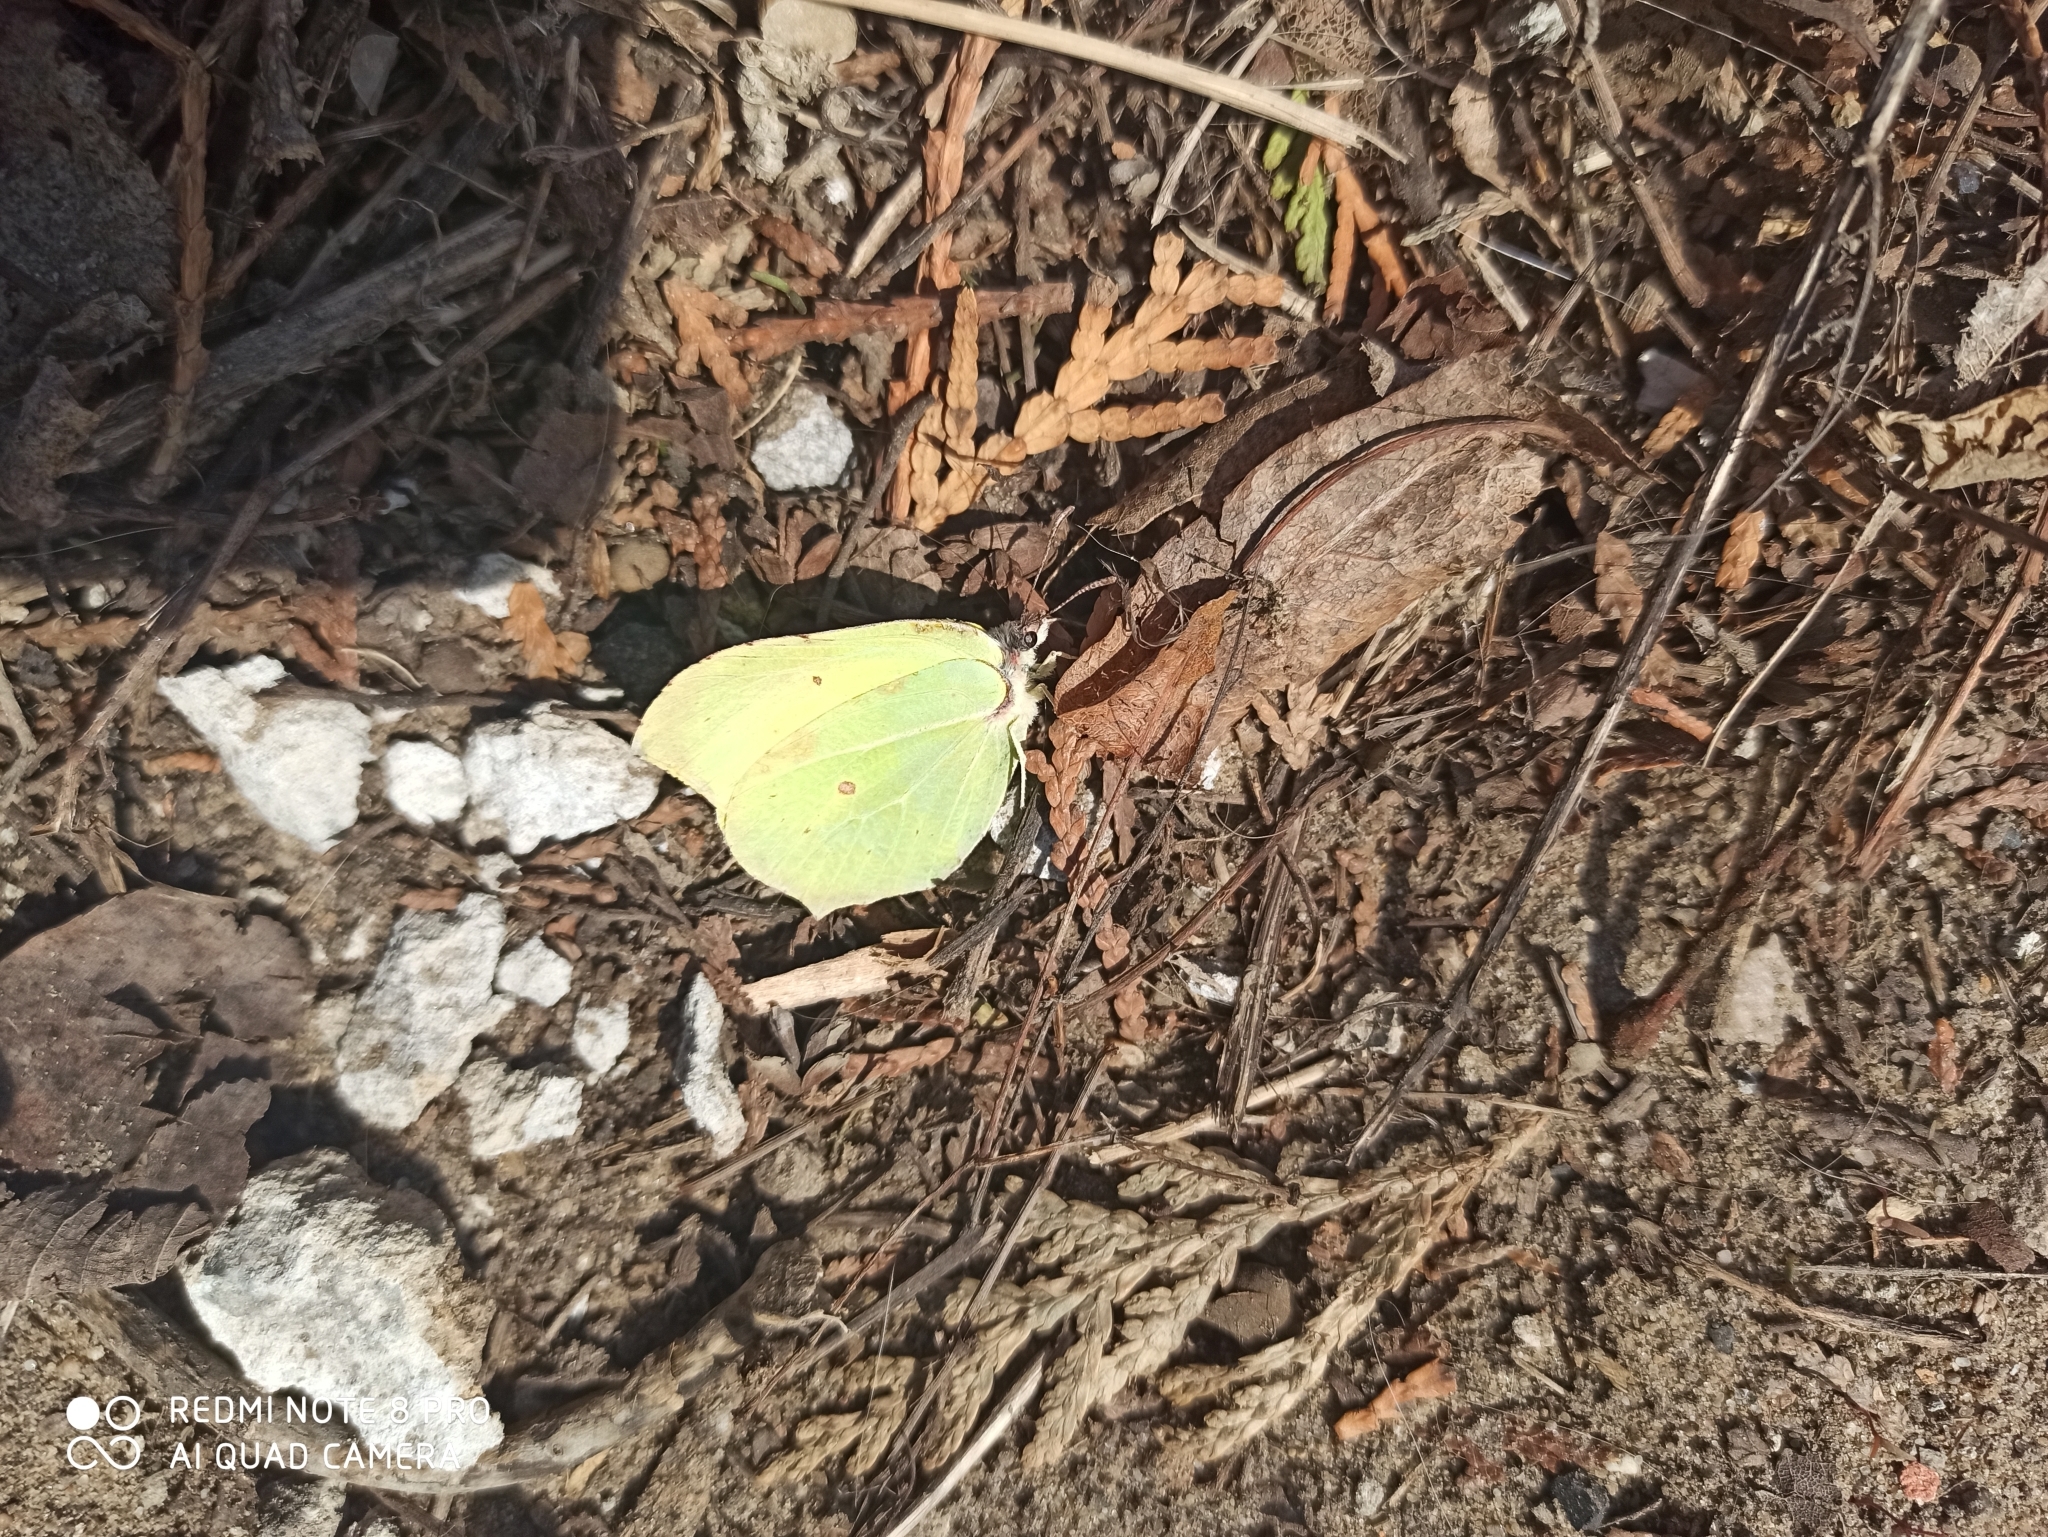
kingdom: Animalia
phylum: Arthropoda
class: Insecta
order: Lepidoptera
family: Pieridae
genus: Gonepteryx
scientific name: Gonepteryx rhamni
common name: Brimstone
